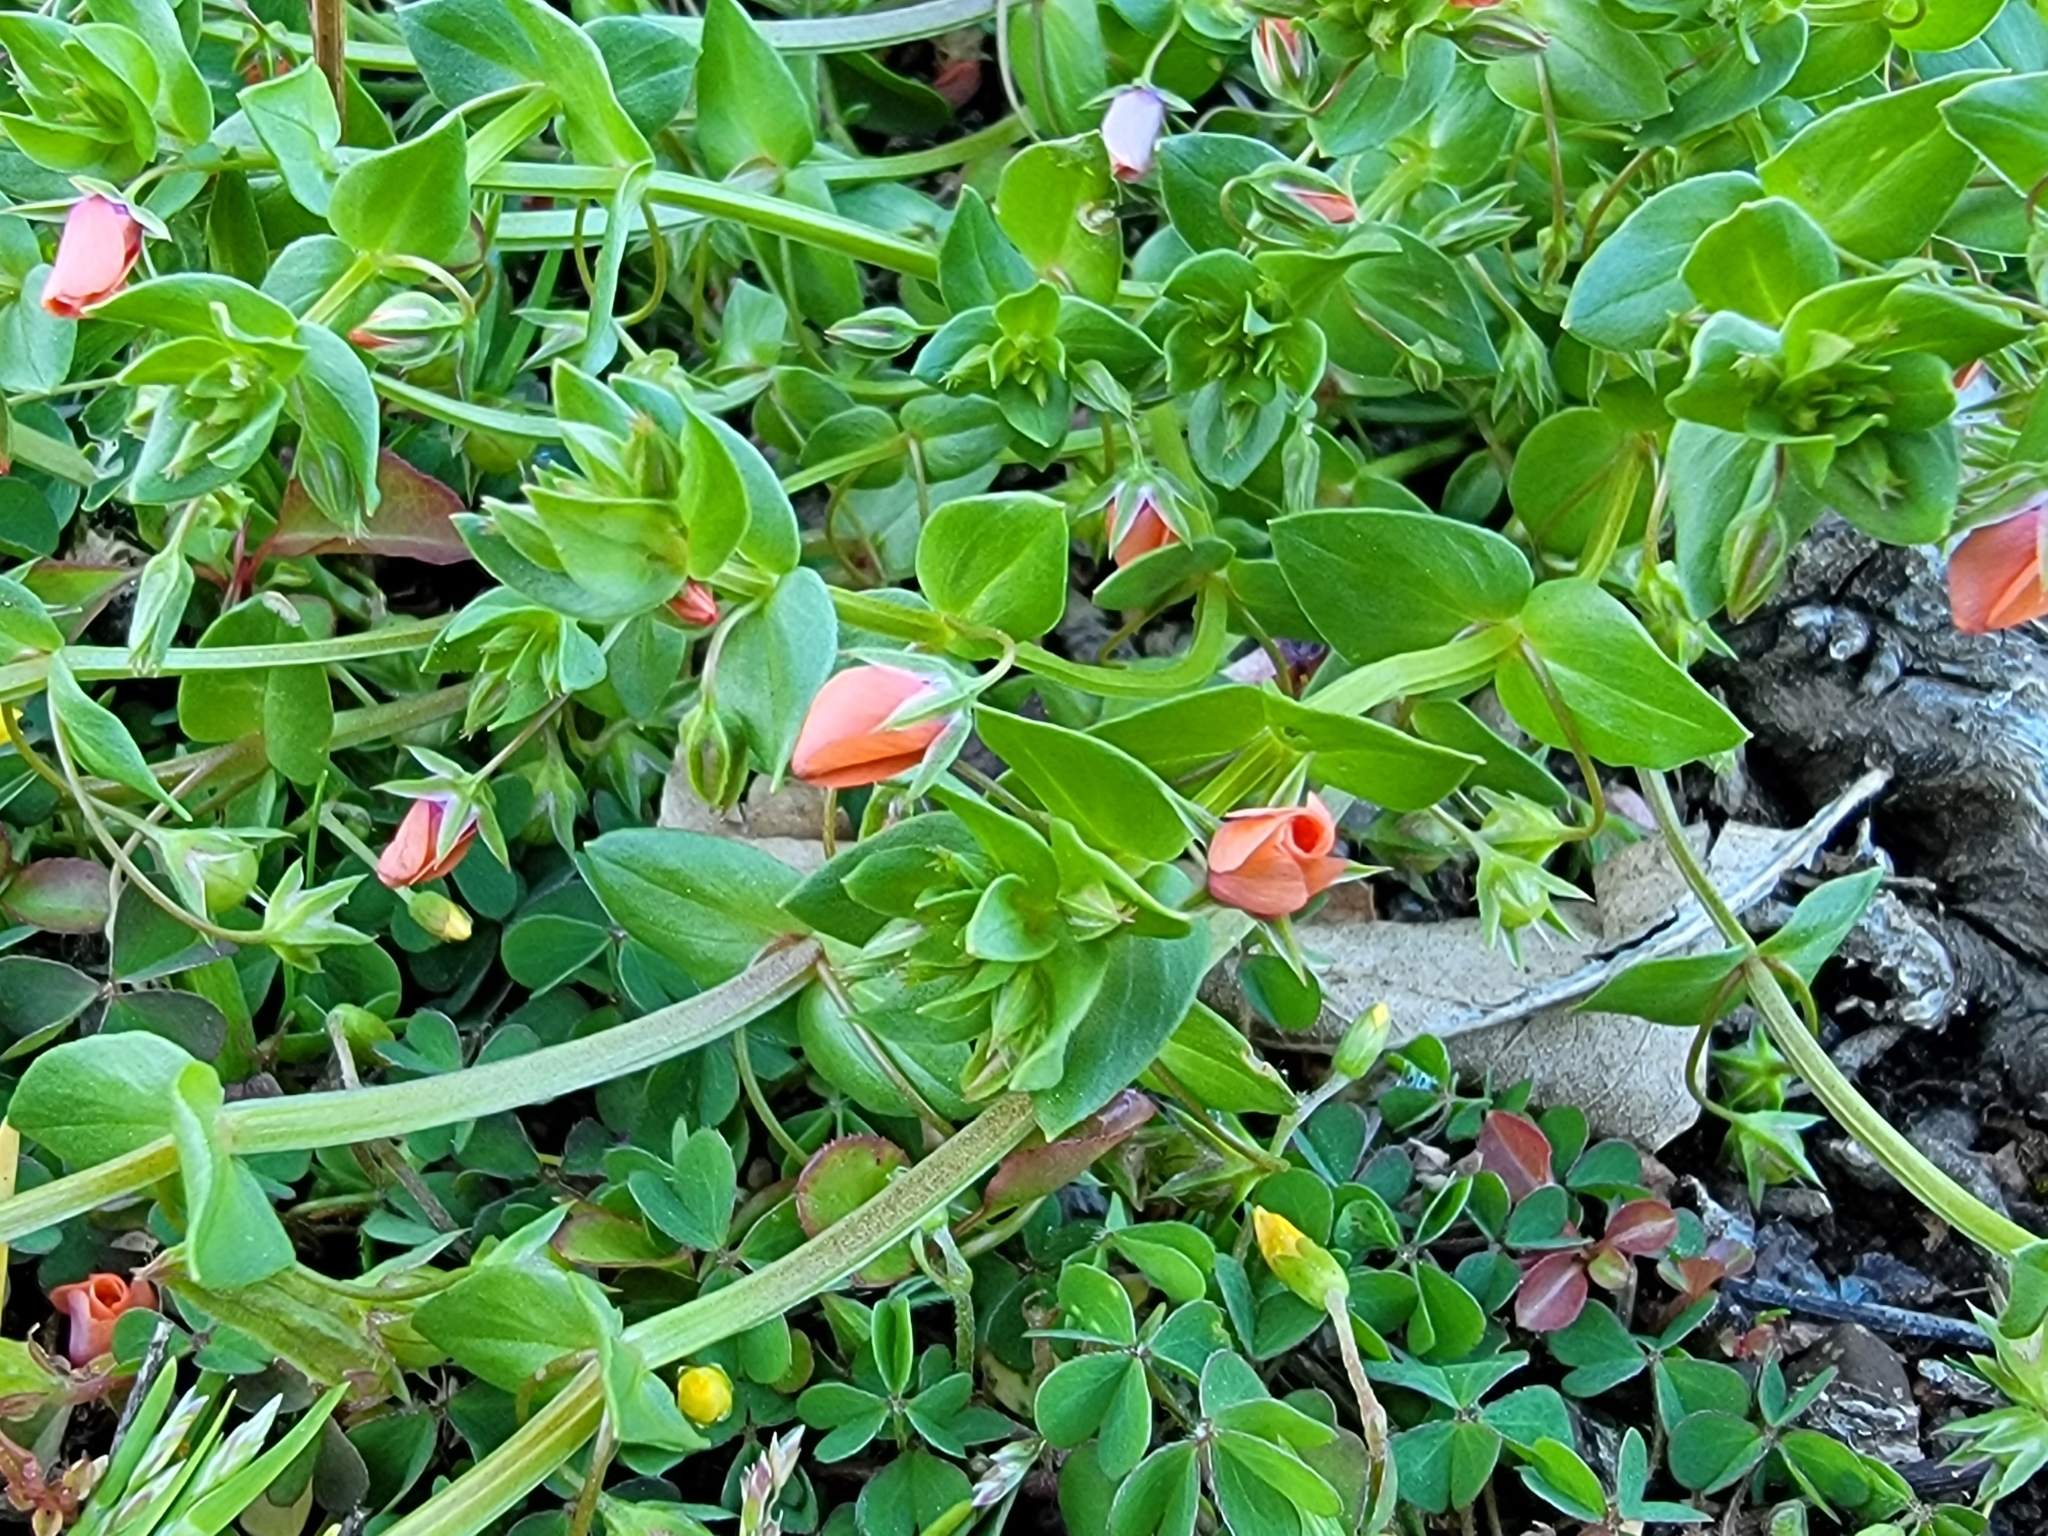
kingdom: Plantae
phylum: Tracheophyta
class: Magnoliopsida
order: Ericales
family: Primulaceae
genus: Lysimachia
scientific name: Lysimachia arvensis
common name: Scarlet pimpernel
